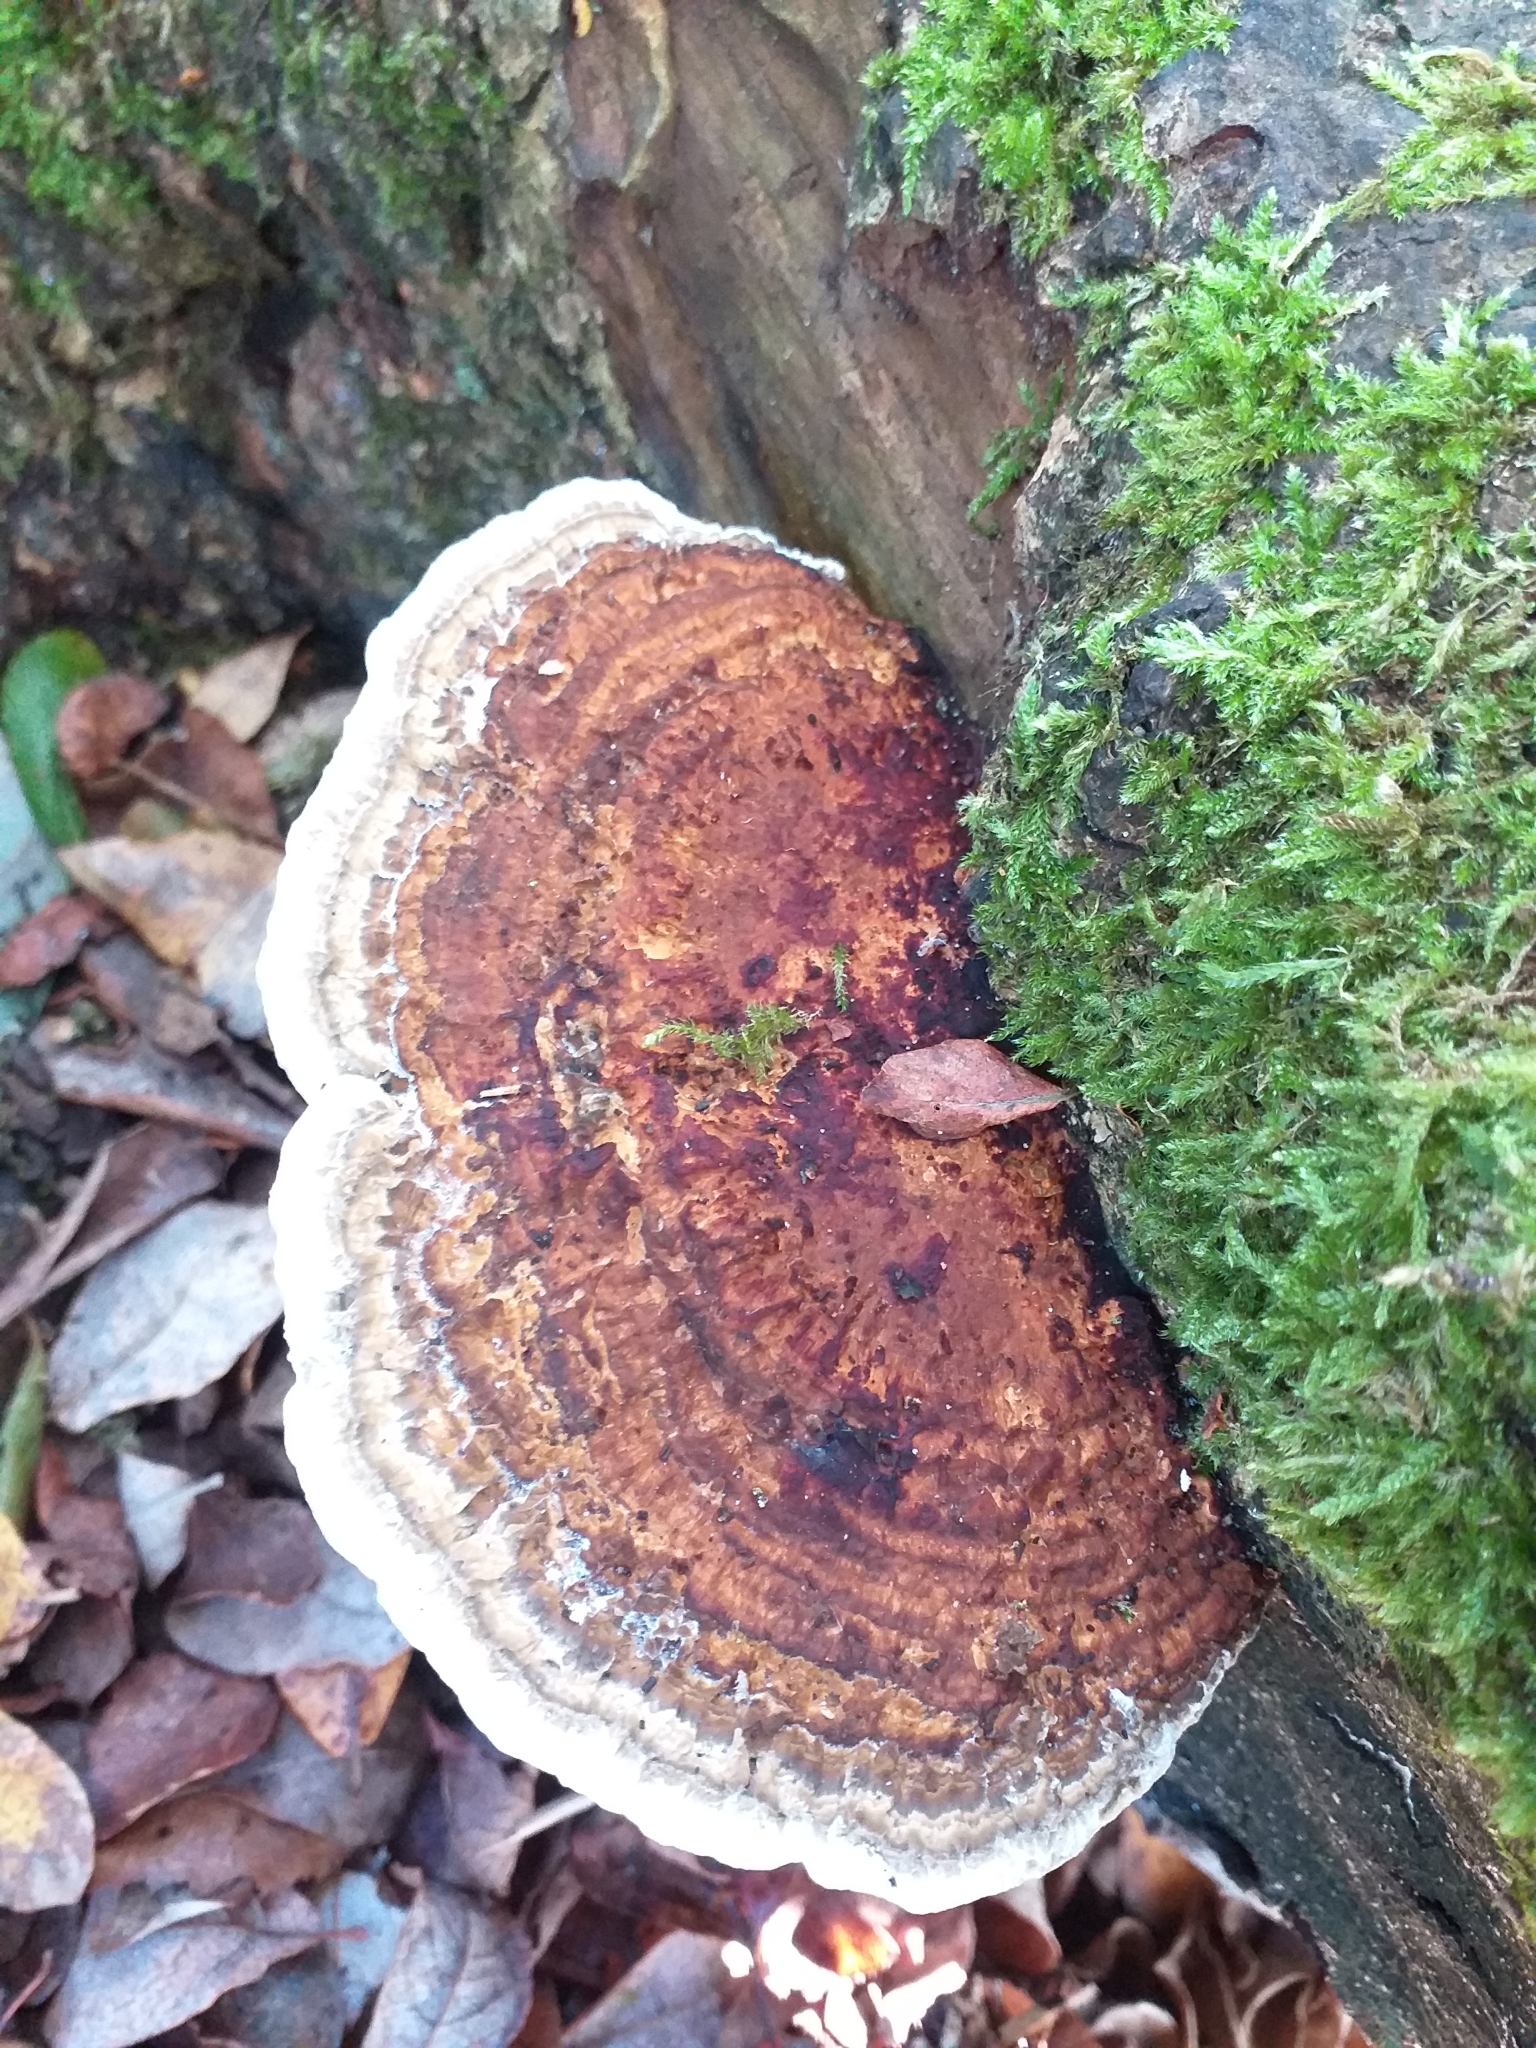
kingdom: Fungi
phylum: Basidiomycota
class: Agaricomycetes
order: Polyporales
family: Polyporaceae
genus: Daedaleopsis
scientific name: Daedaleopsis confragosa
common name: Blushing bracket
